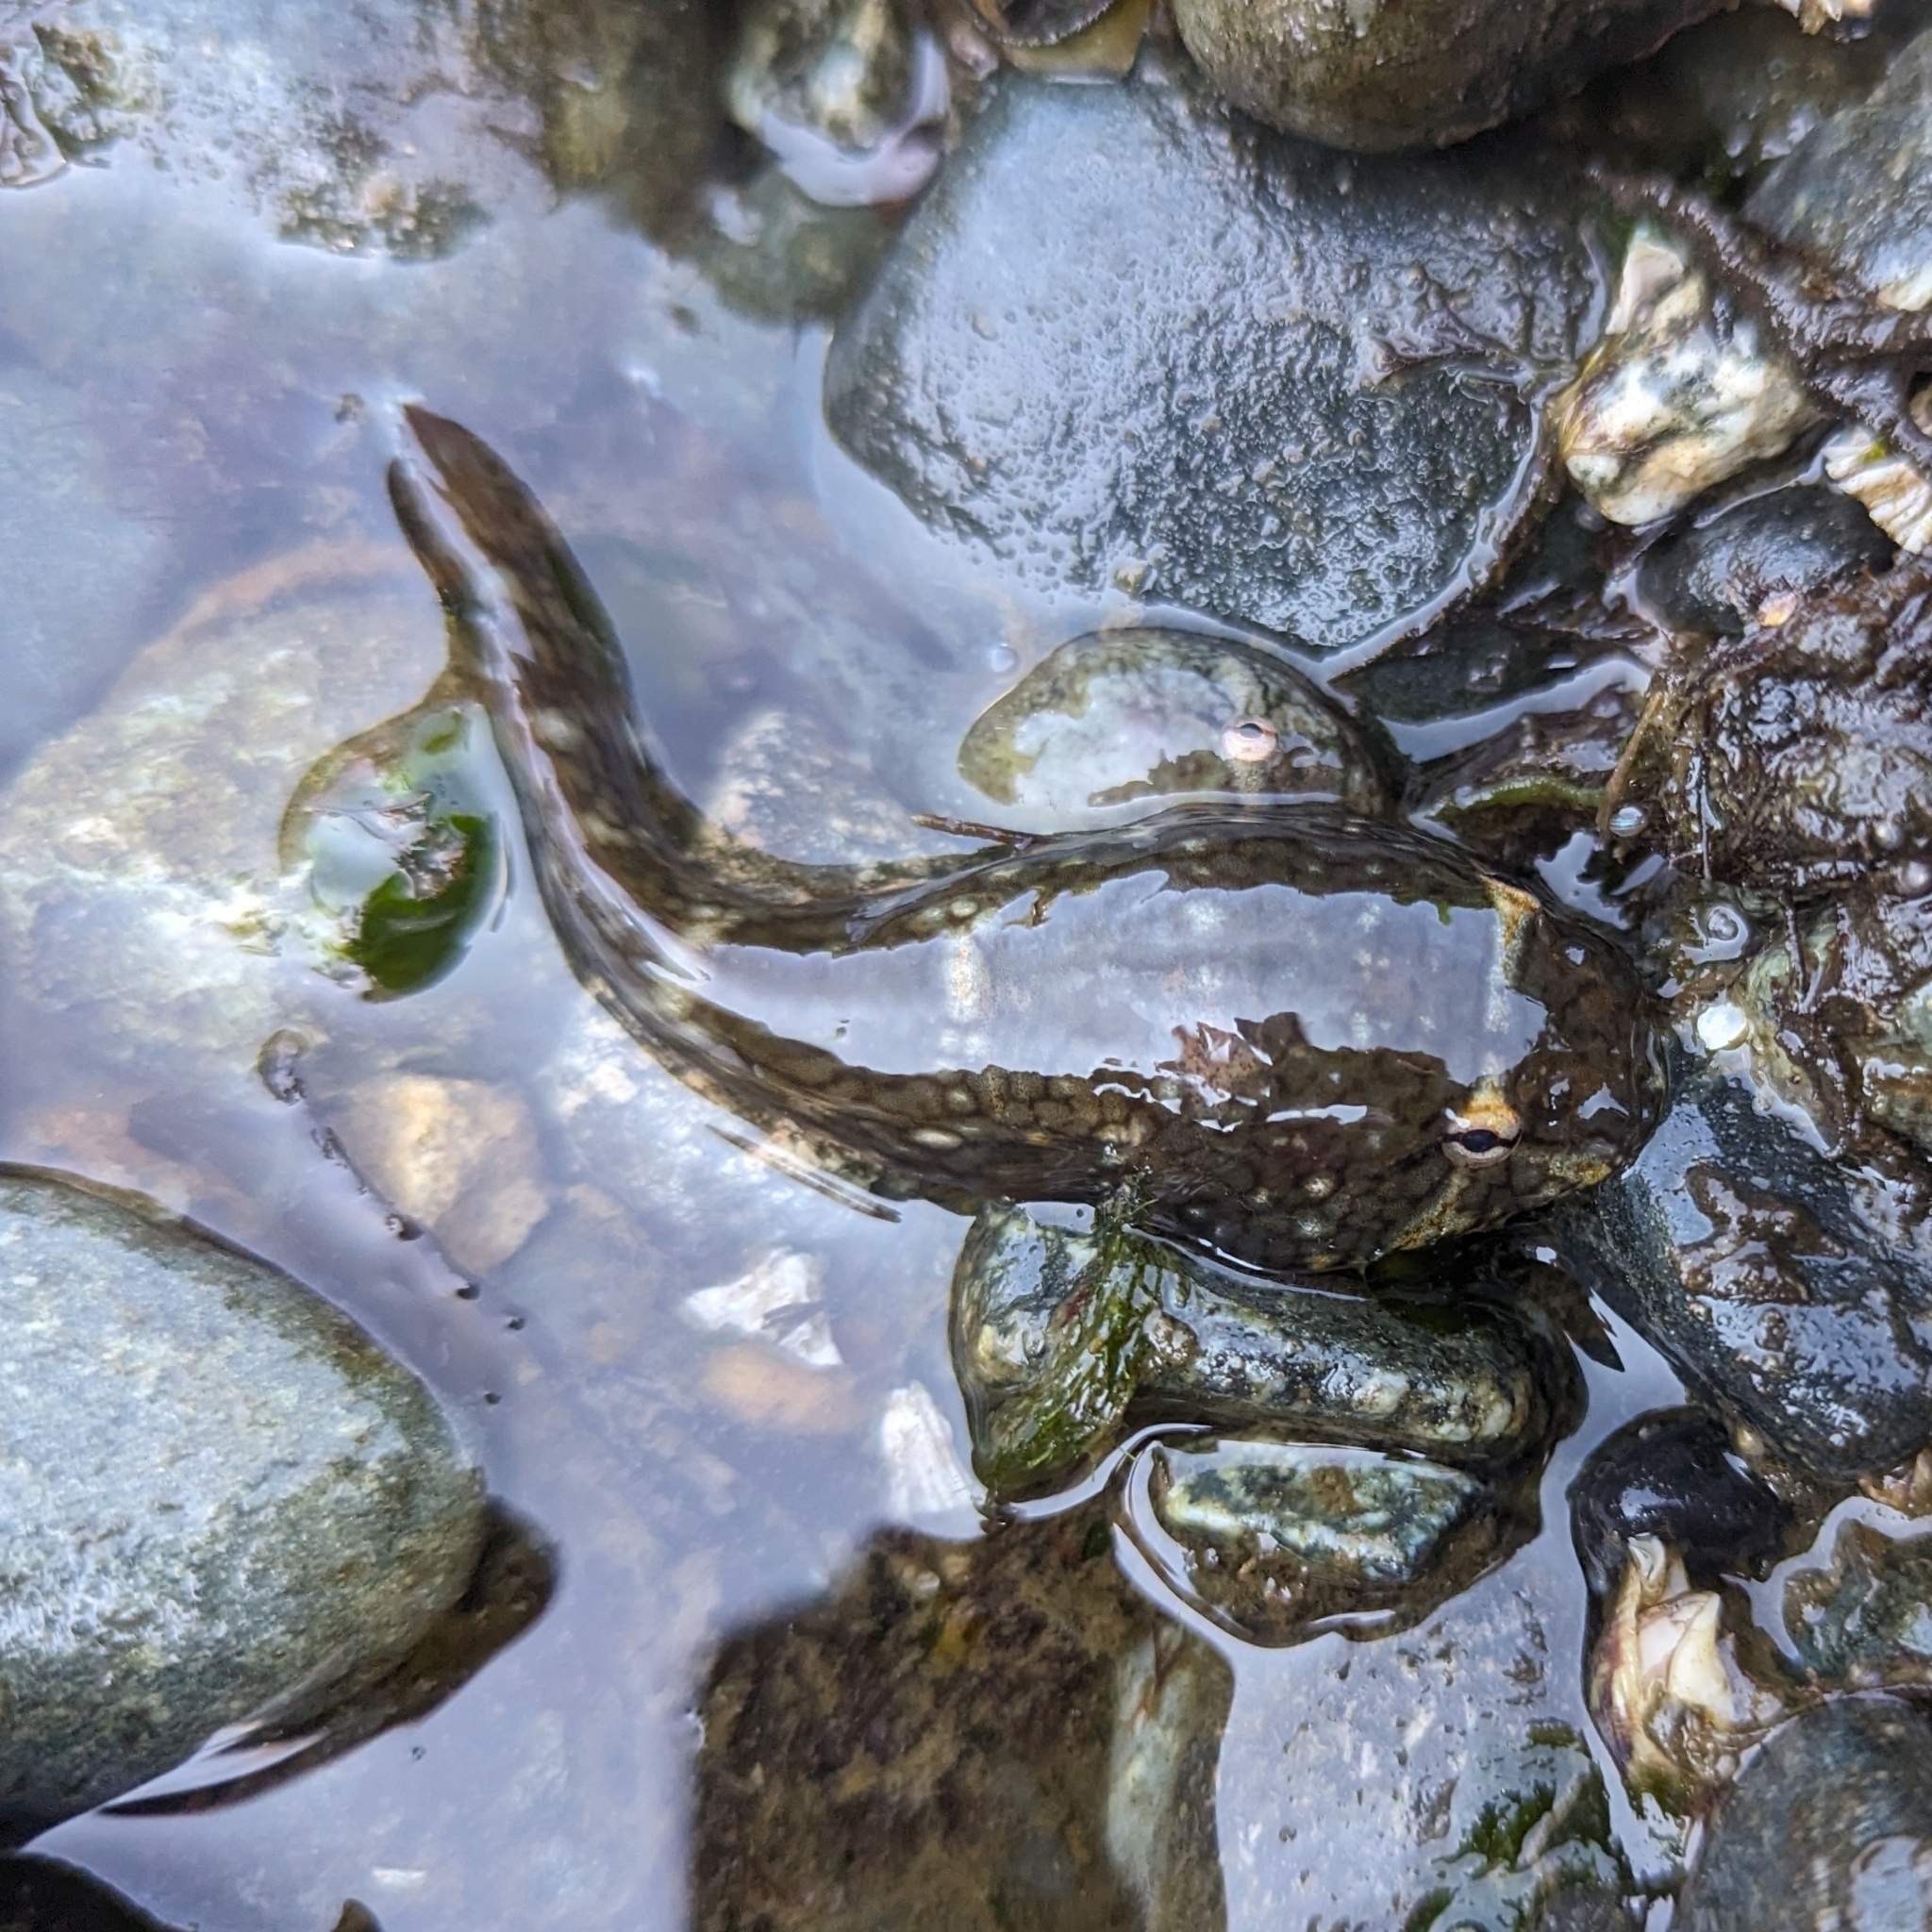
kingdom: Animalia
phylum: Chordata
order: Gobiesociformes
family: Gobiesocidae
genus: Gobiesox
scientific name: Gobiesox maeandricus
